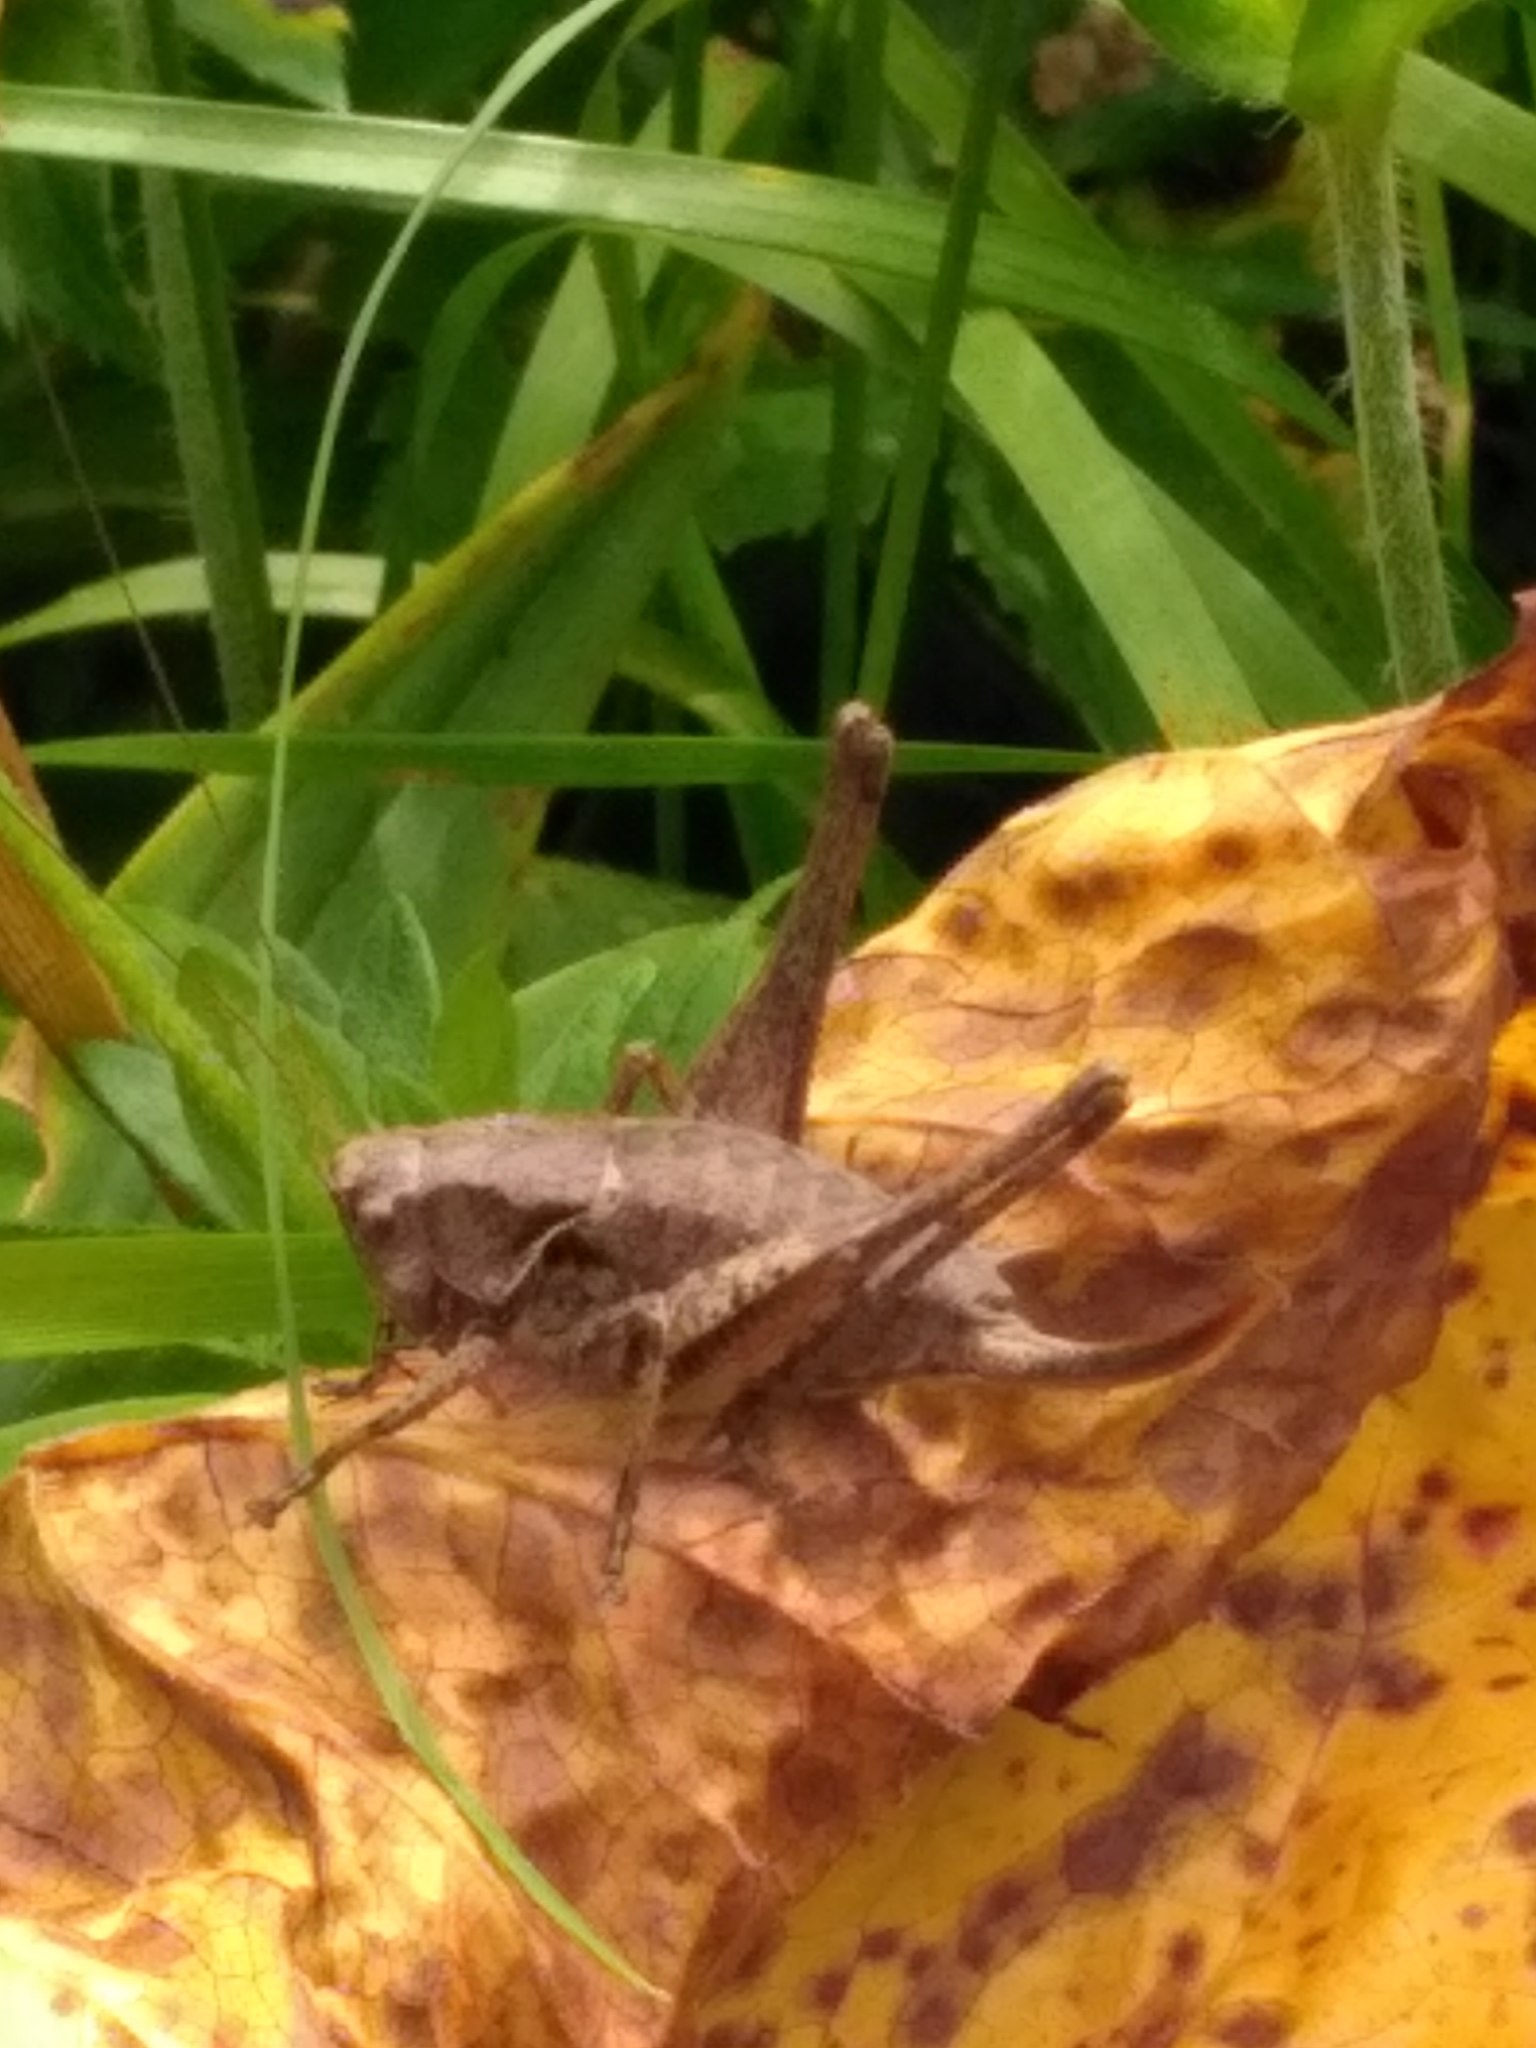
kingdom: Animalia
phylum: Arthropoda
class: Insecta
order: Orthoptera
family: Tettigoniidae
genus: Pholidoptera
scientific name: Pholidoptera griseoaptera
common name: Dark bush-cricket
